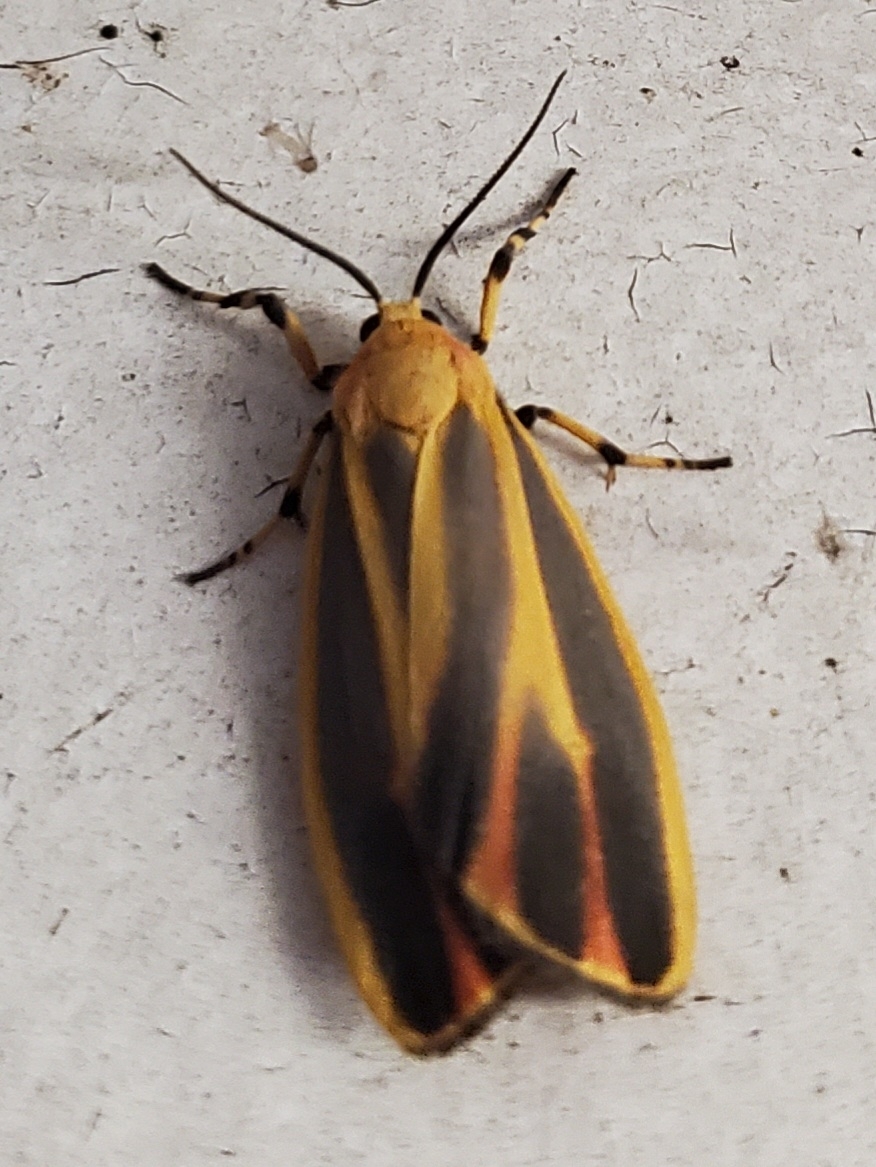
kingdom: Animalia
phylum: Arthropoda
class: Insecta
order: Lepidoptera
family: Erebidae
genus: Hypoprepia
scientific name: Hypoprepia fucosa
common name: Painted lichen moth
